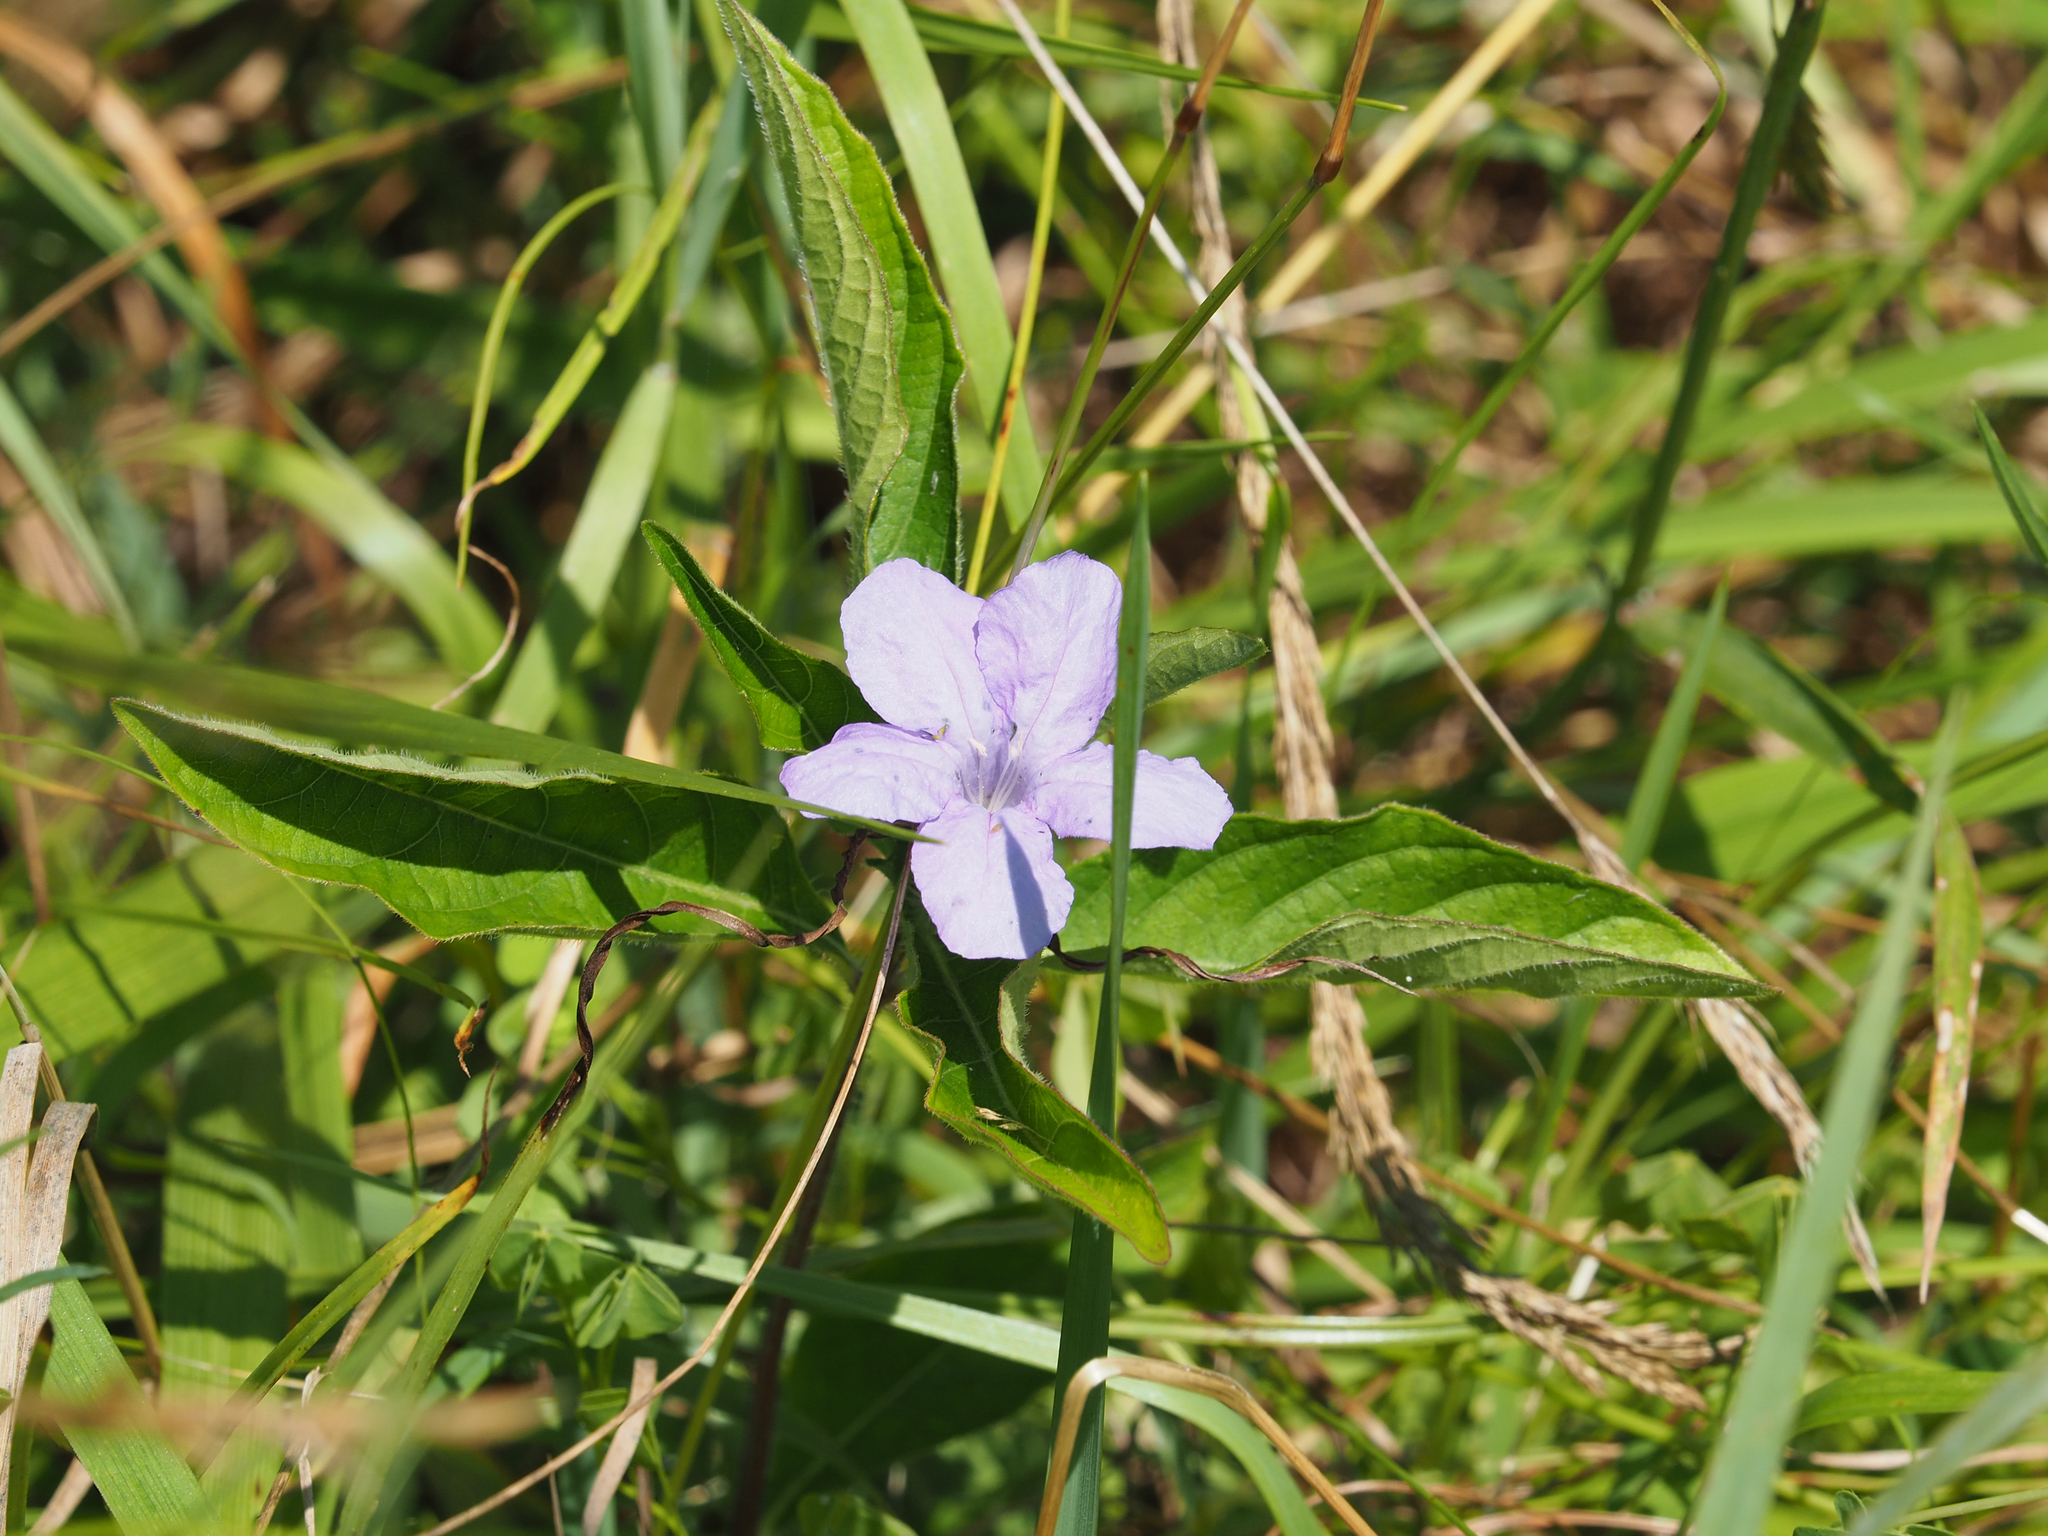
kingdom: Plantae
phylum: Tracheophyta
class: Magnoliopsida
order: Lamiales
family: Acanthaceae
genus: Ruellia
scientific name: Ruellia caroliniensis
